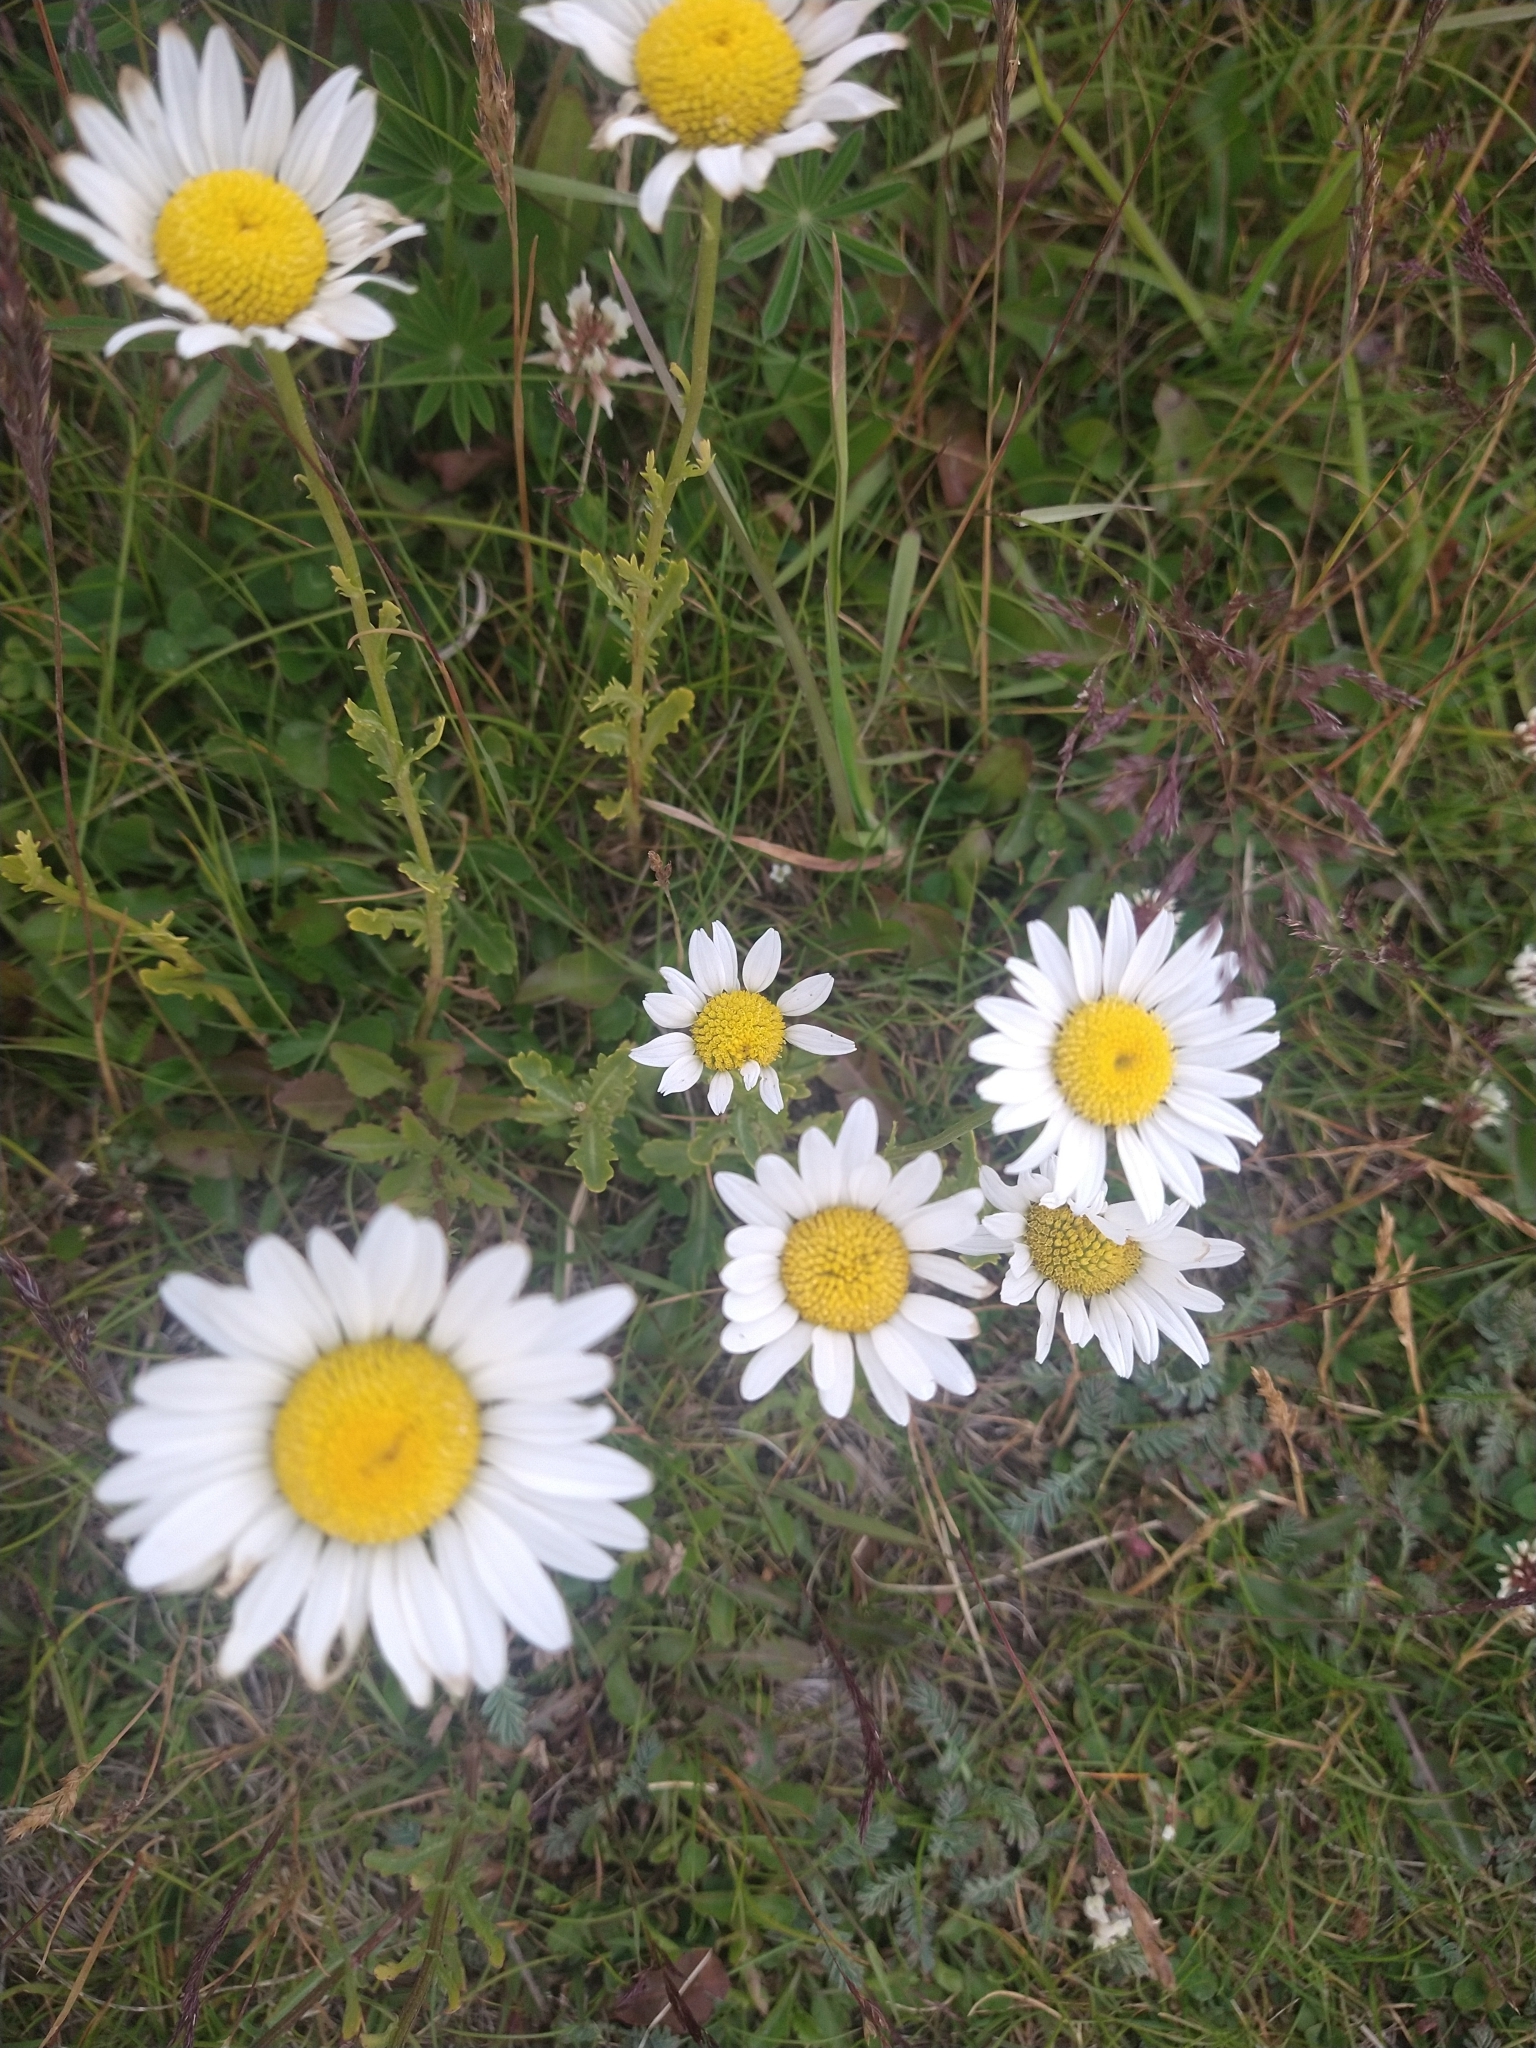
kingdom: Plantae
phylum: Tracheophyta
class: Magnoliopsida
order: Asterales
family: Asteraceae
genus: Leucanthemum
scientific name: Leucanthemum vulgare
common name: Oxeye daisy
